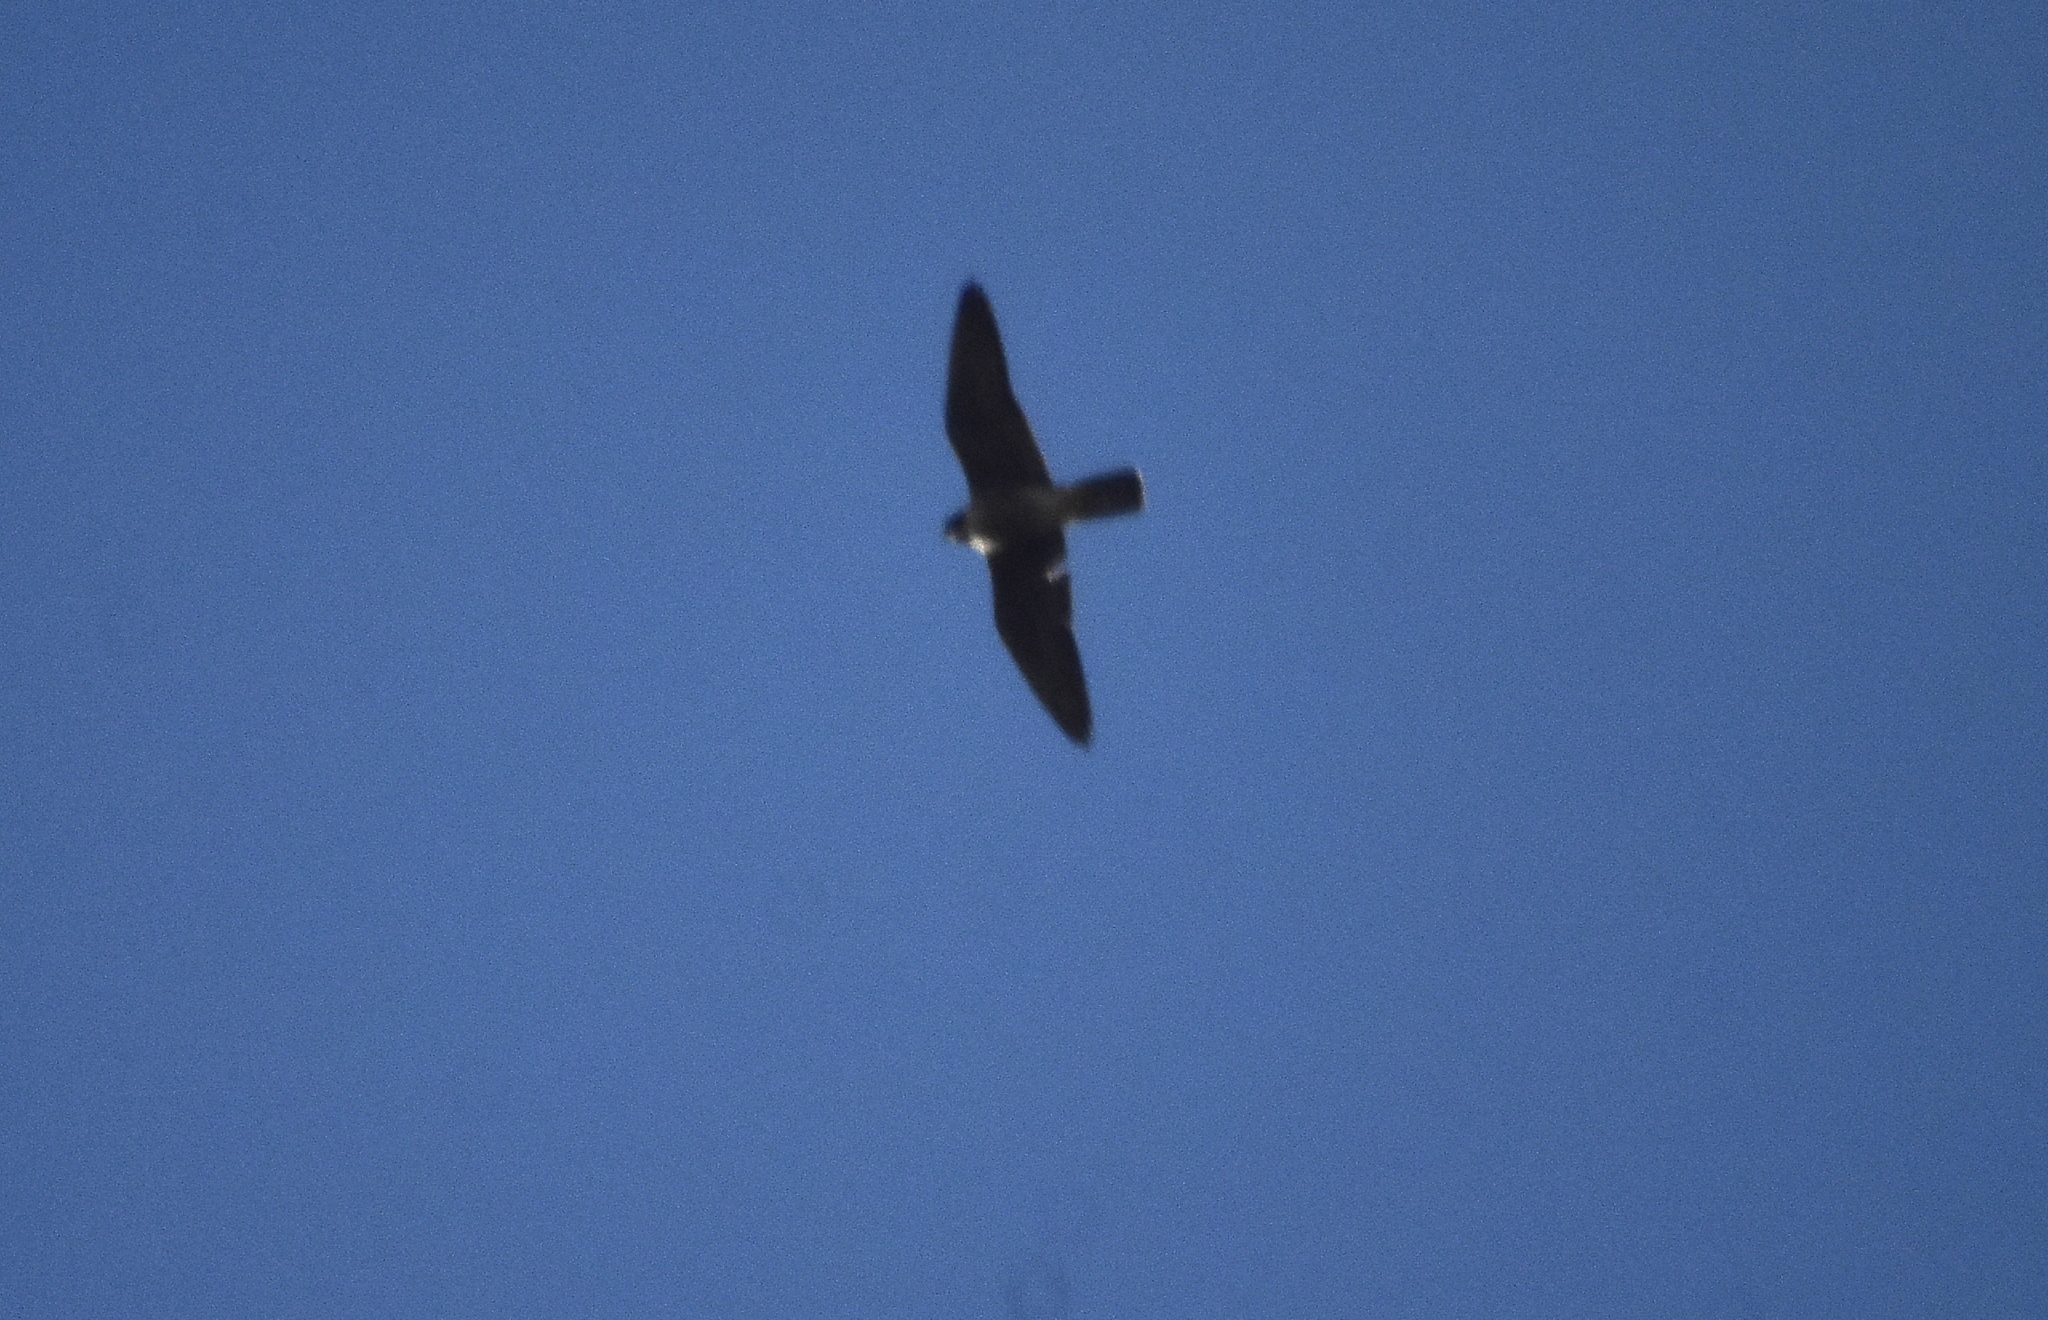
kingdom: Animalia
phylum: Chordata
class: Aves
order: Falconiformes
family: Falconidae
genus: Falco
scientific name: Falco peregrinus
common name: Peregrine falcon
